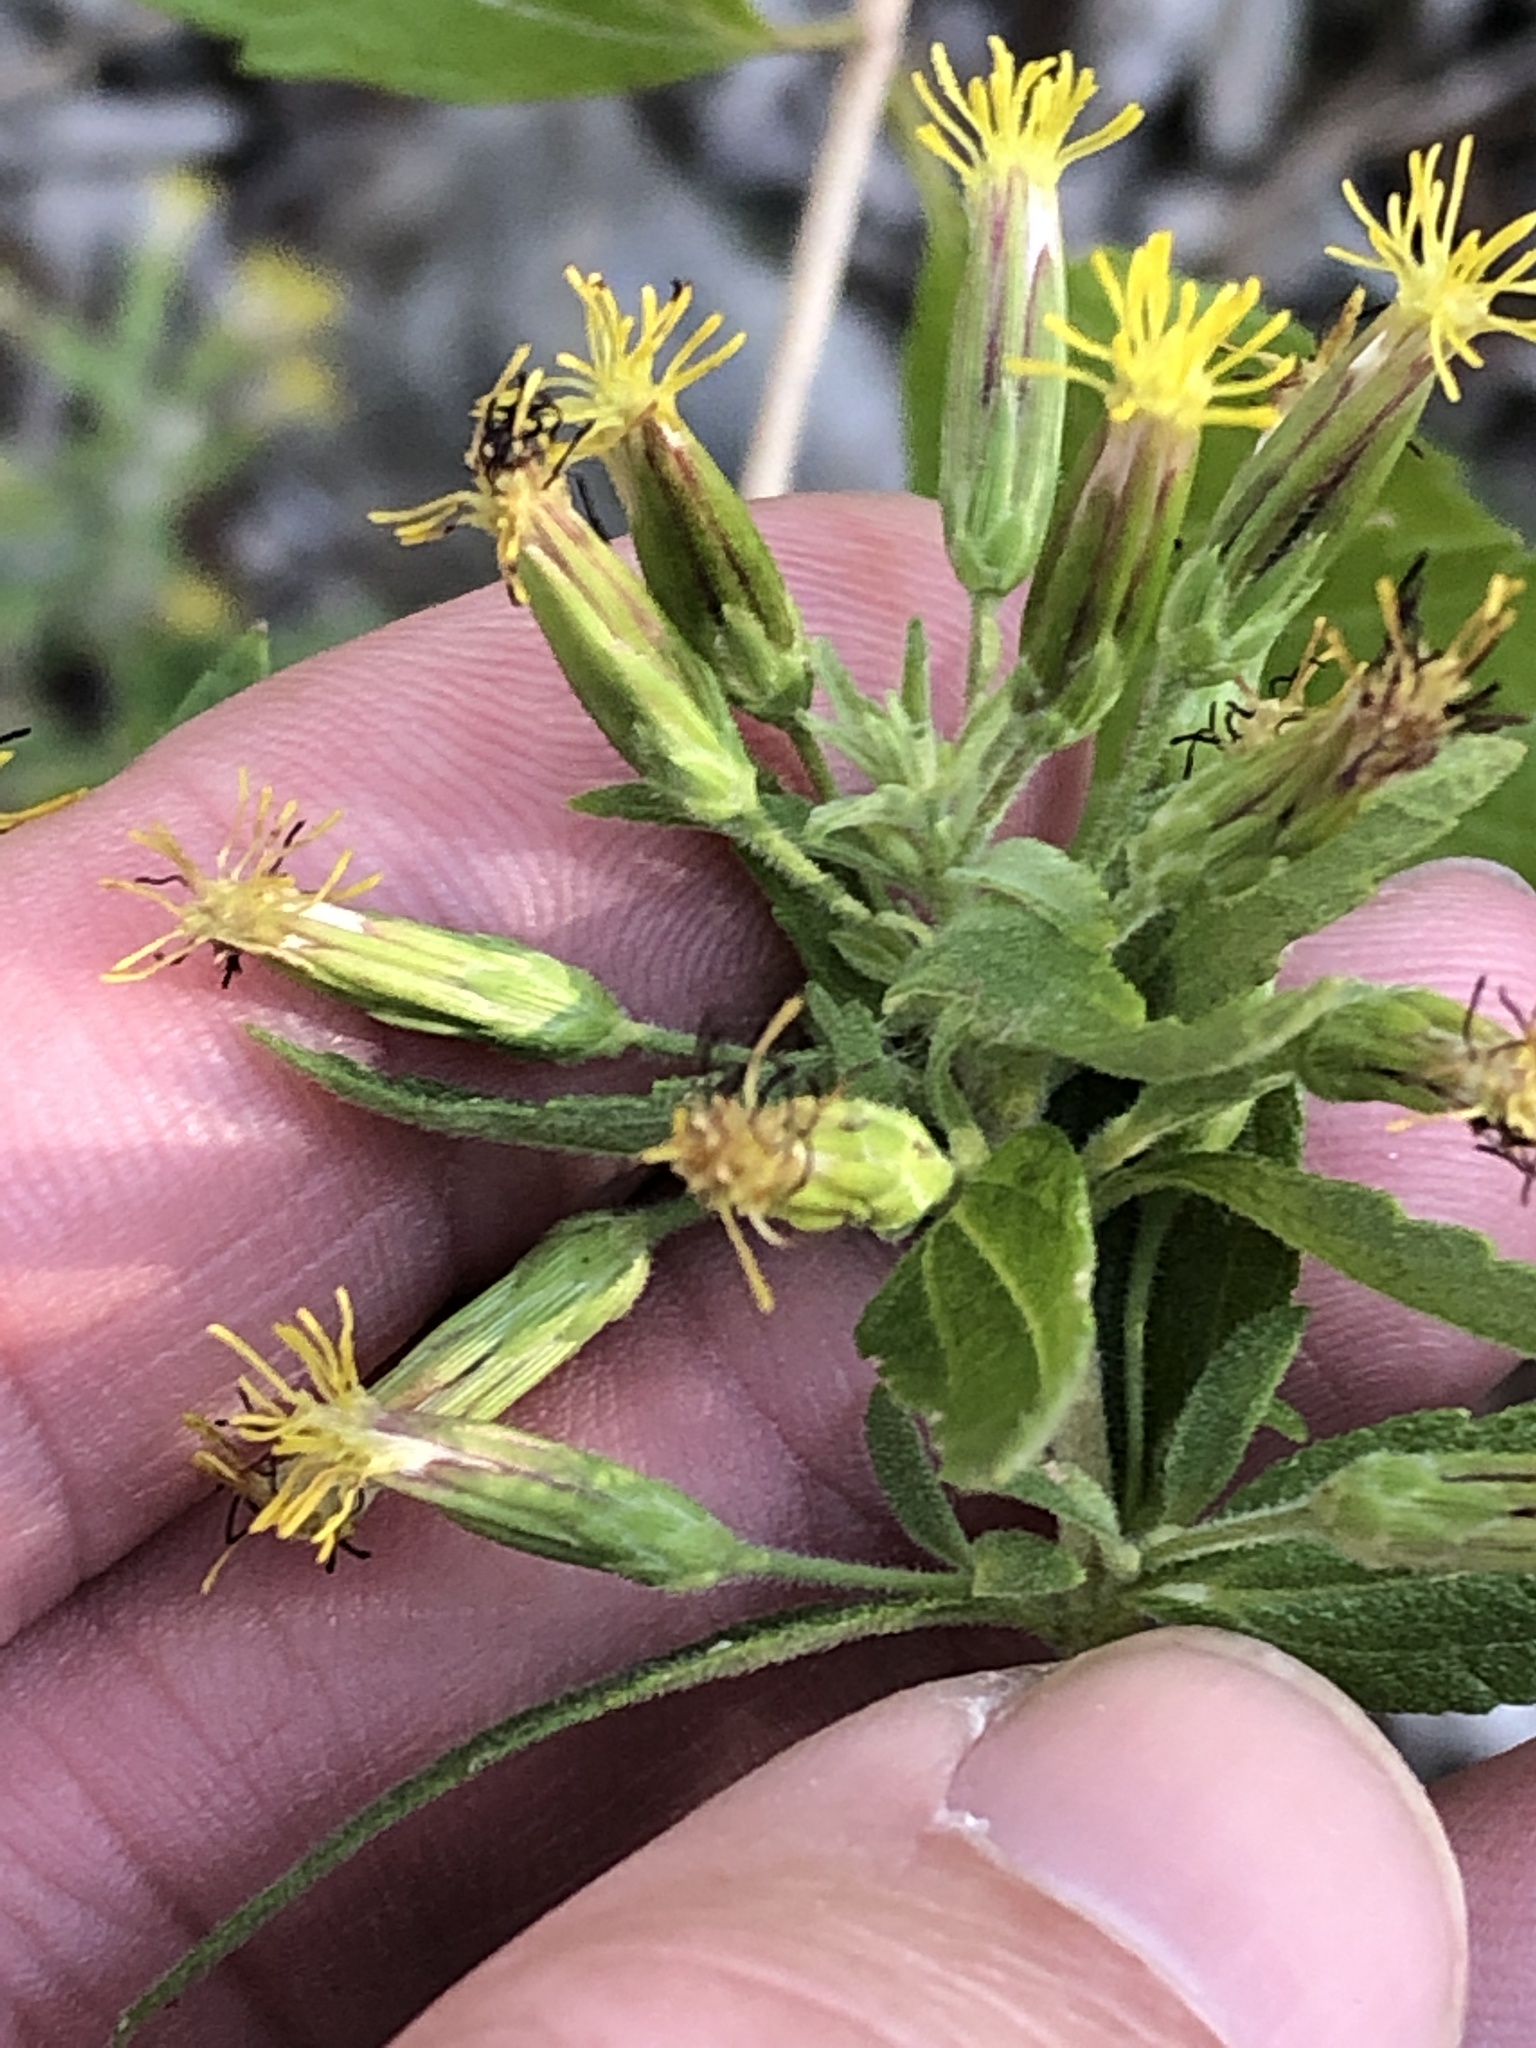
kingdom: Plantae
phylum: Tracheophyta
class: Magnoliopsida
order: Asterales
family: Asteraceae
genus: Brickellia
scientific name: Brickellia cylindracea
